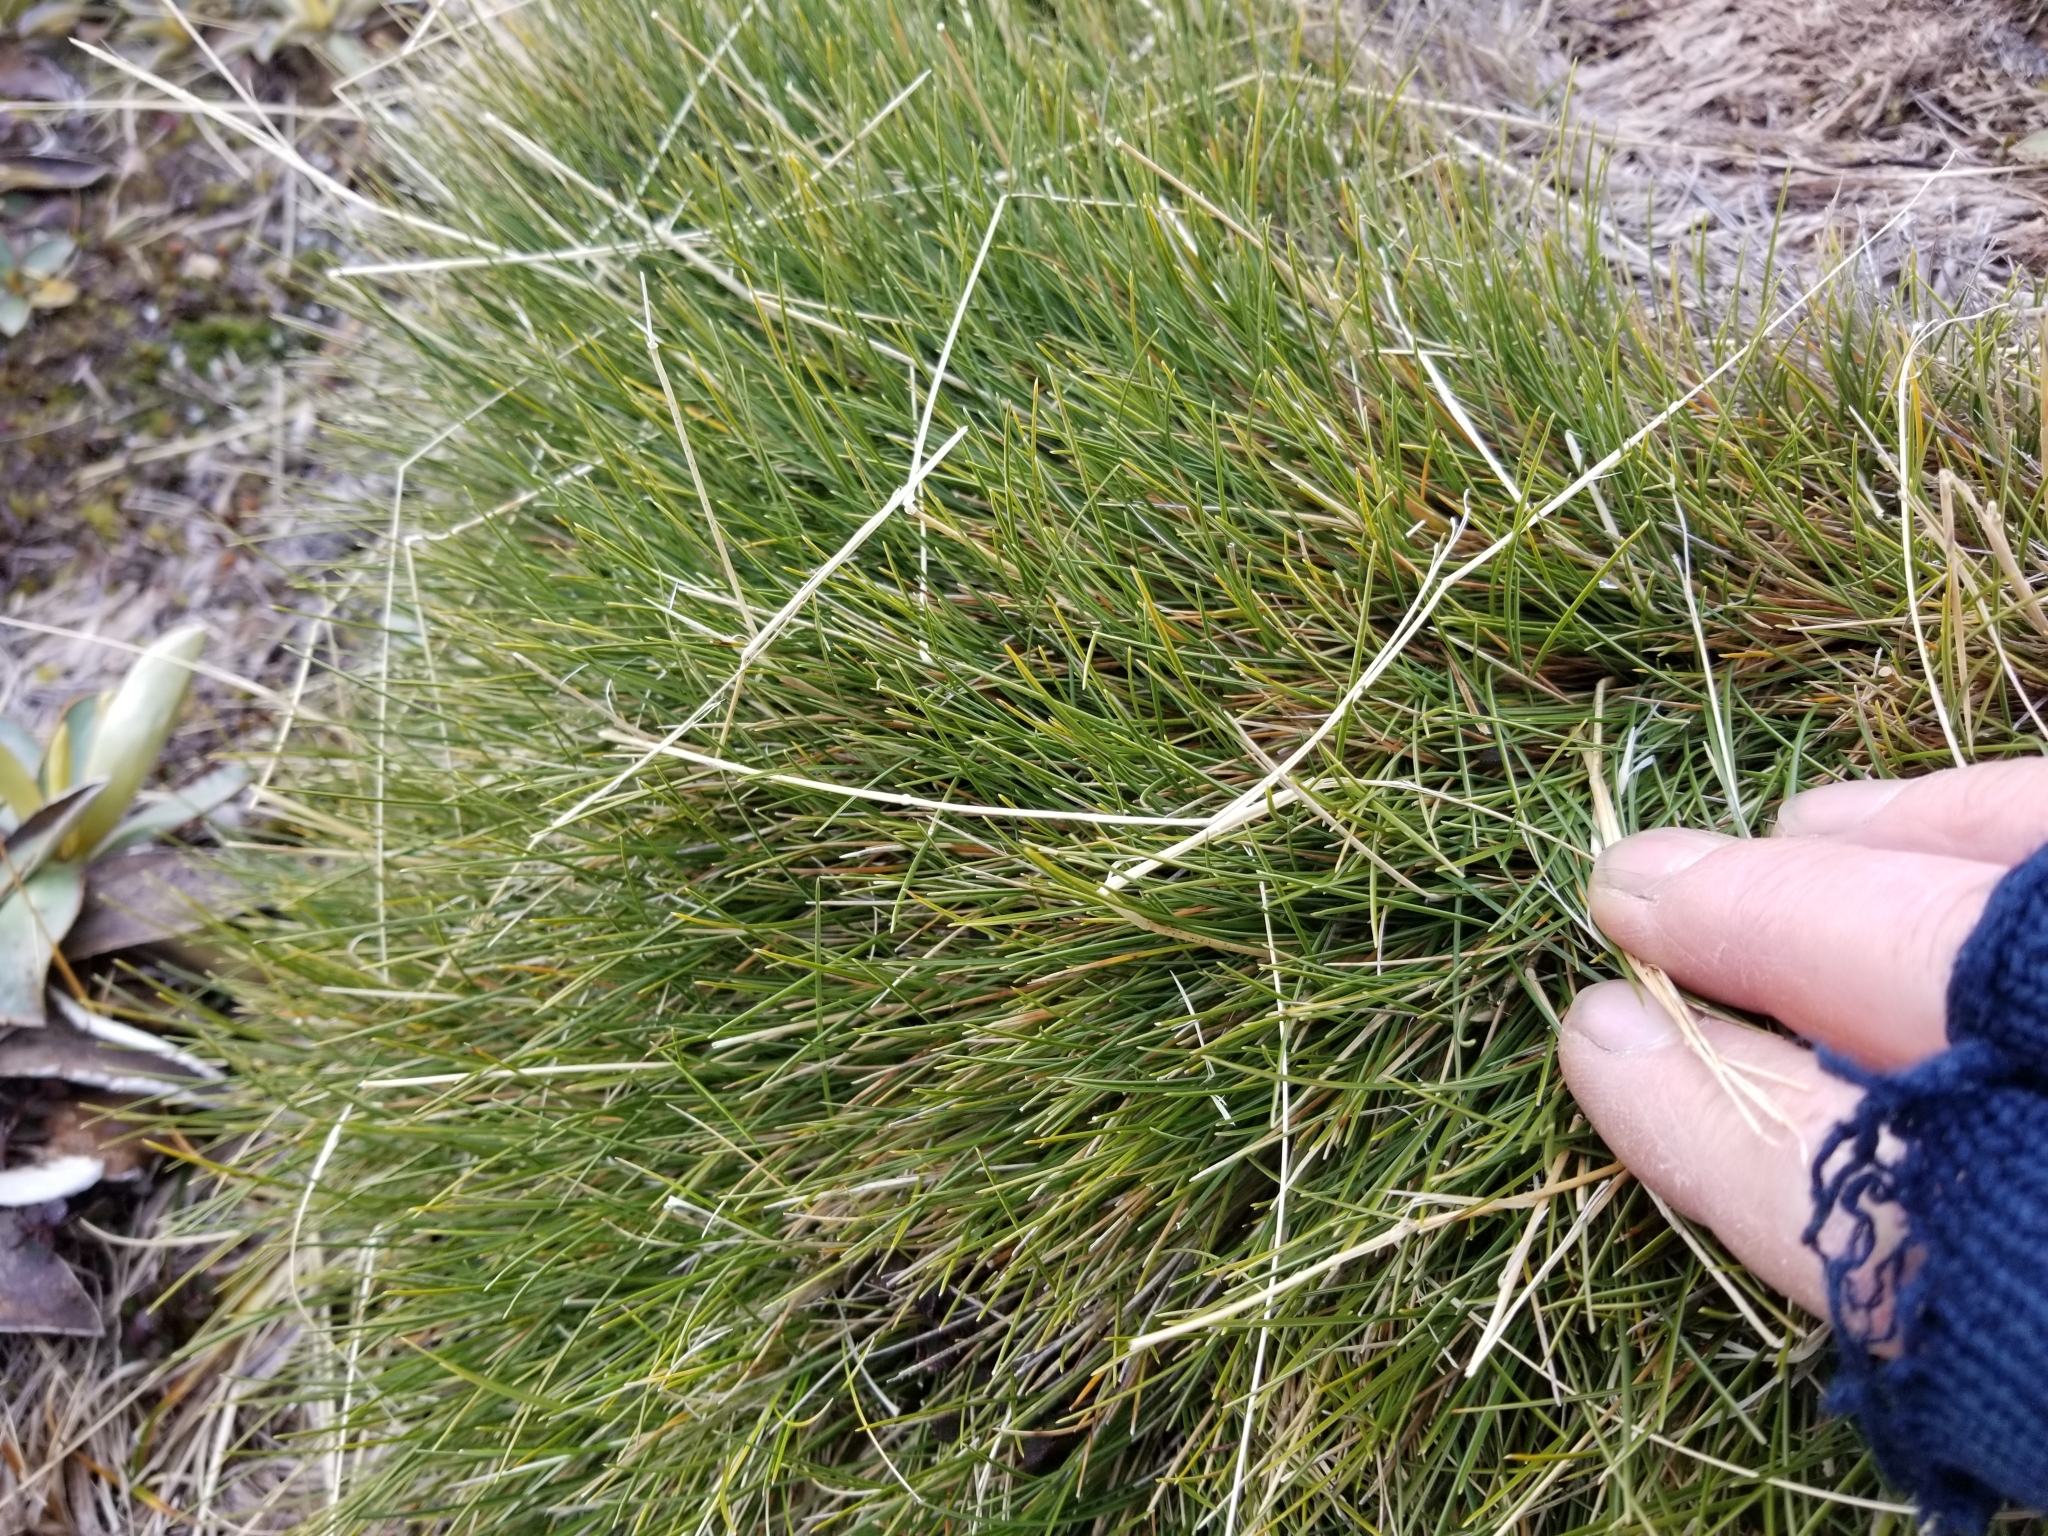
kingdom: Plantae
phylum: Tracheophyta
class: Liliopsida
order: Poales
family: Poaceae
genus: Chionochloa
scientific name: Chionochloa australis
